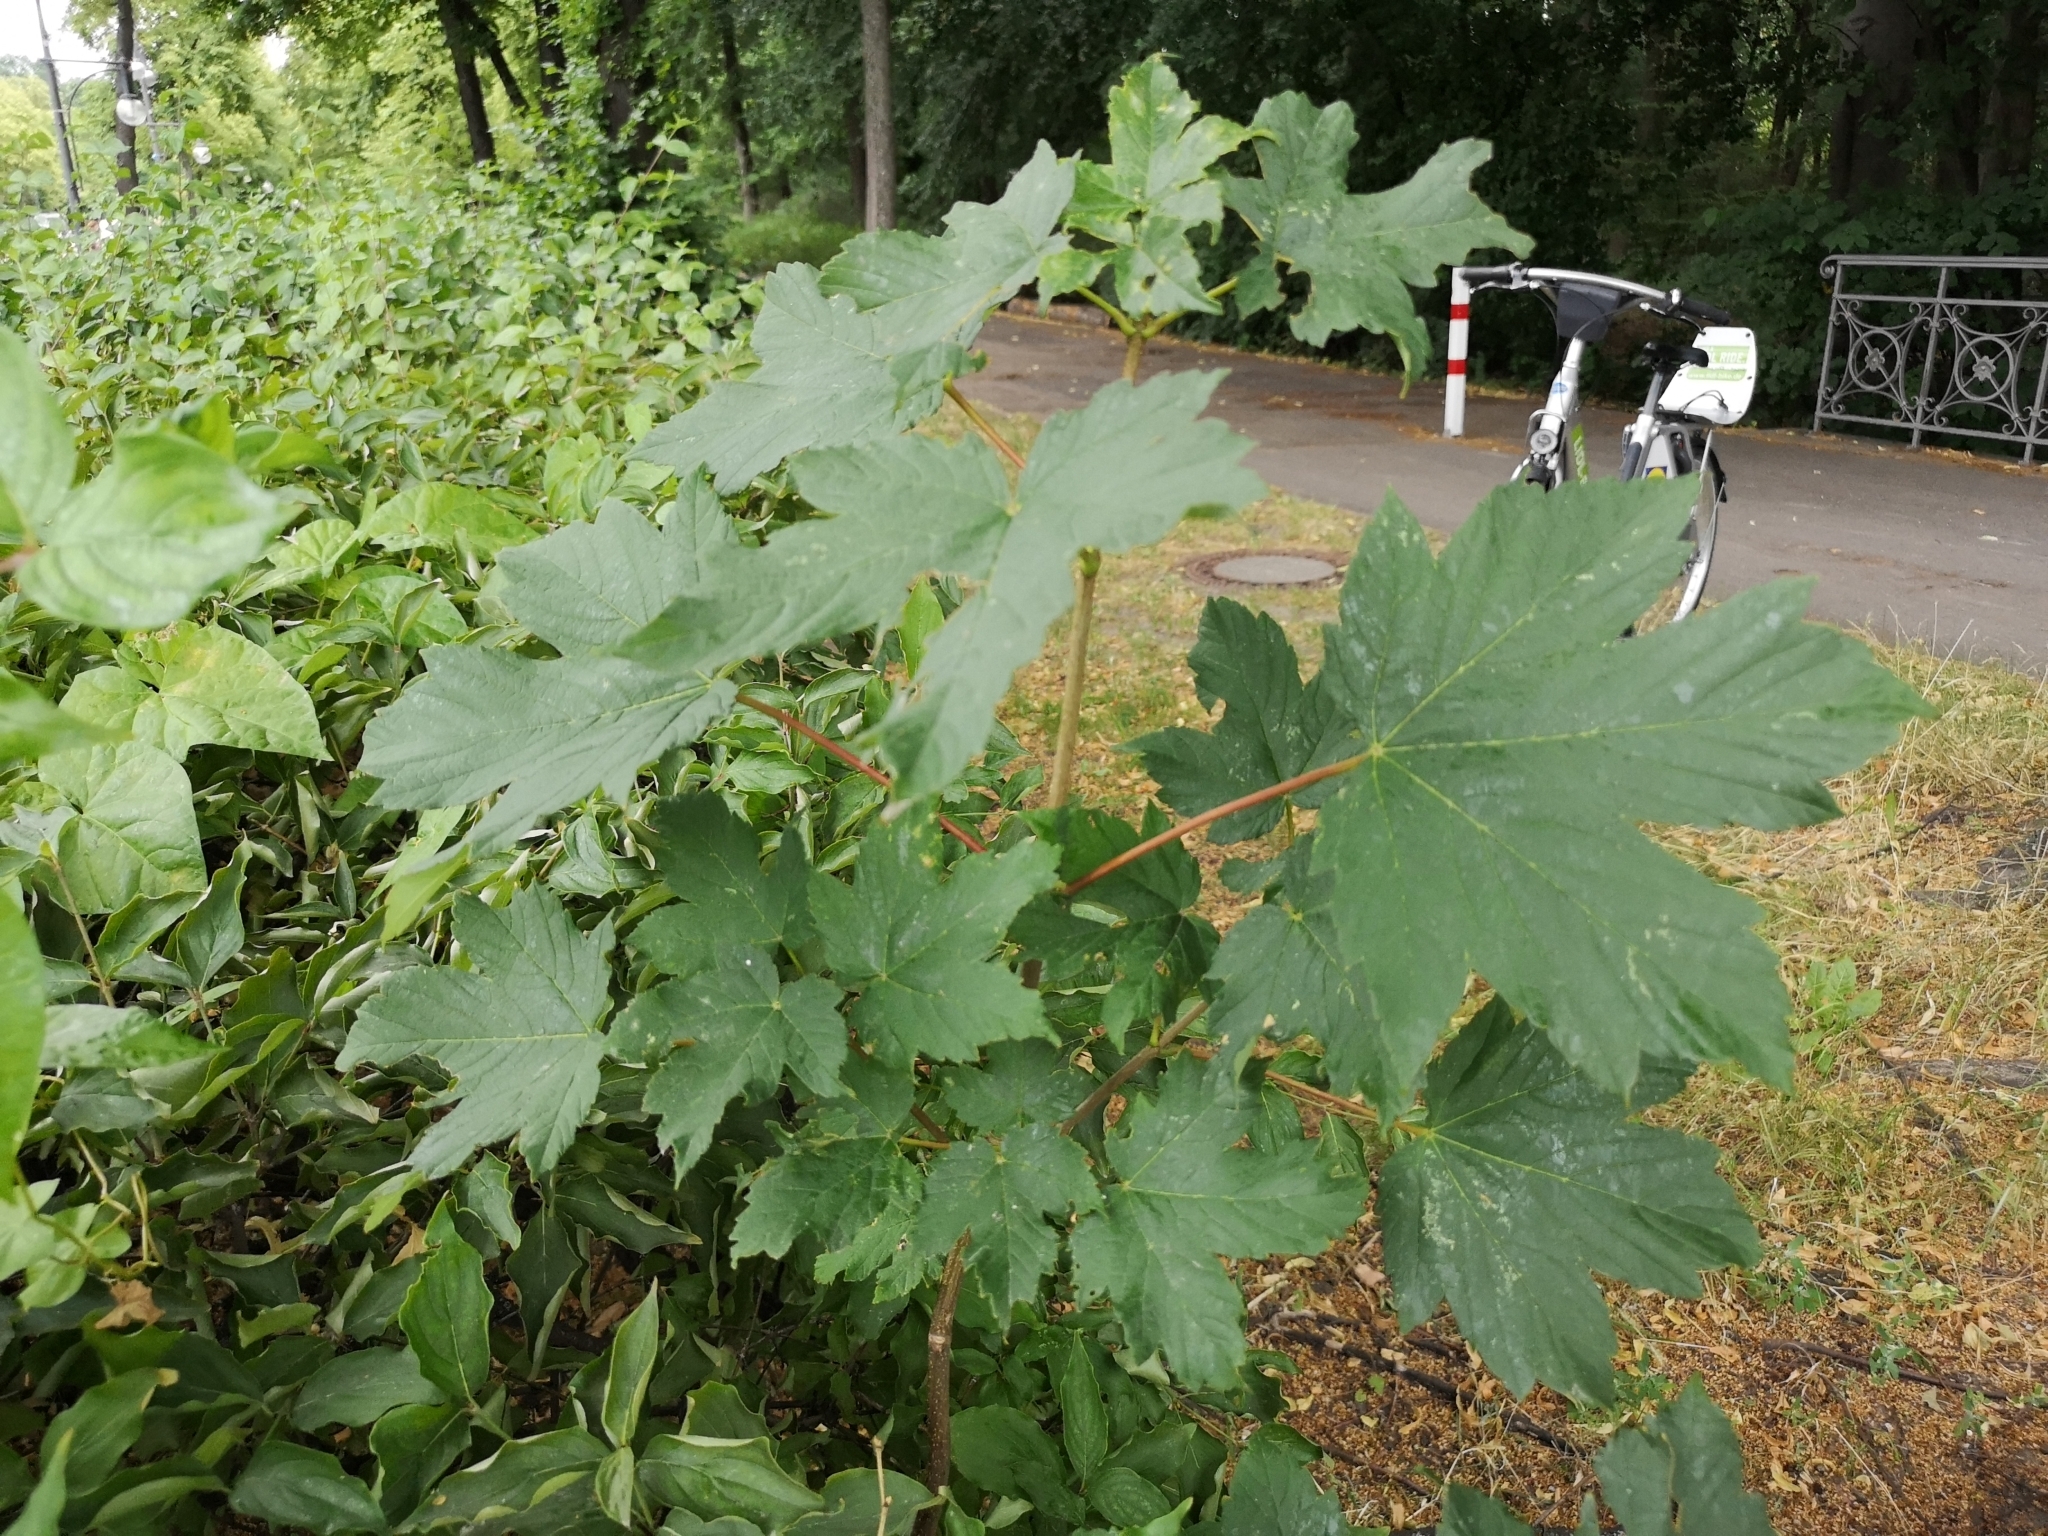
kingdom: Plantae
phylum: Tracheophyta
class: Magnoliopsida
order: Sapindales
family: Sapindaceae
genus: Acer
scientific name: Acer pseudoplatanus
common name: Sycamore
